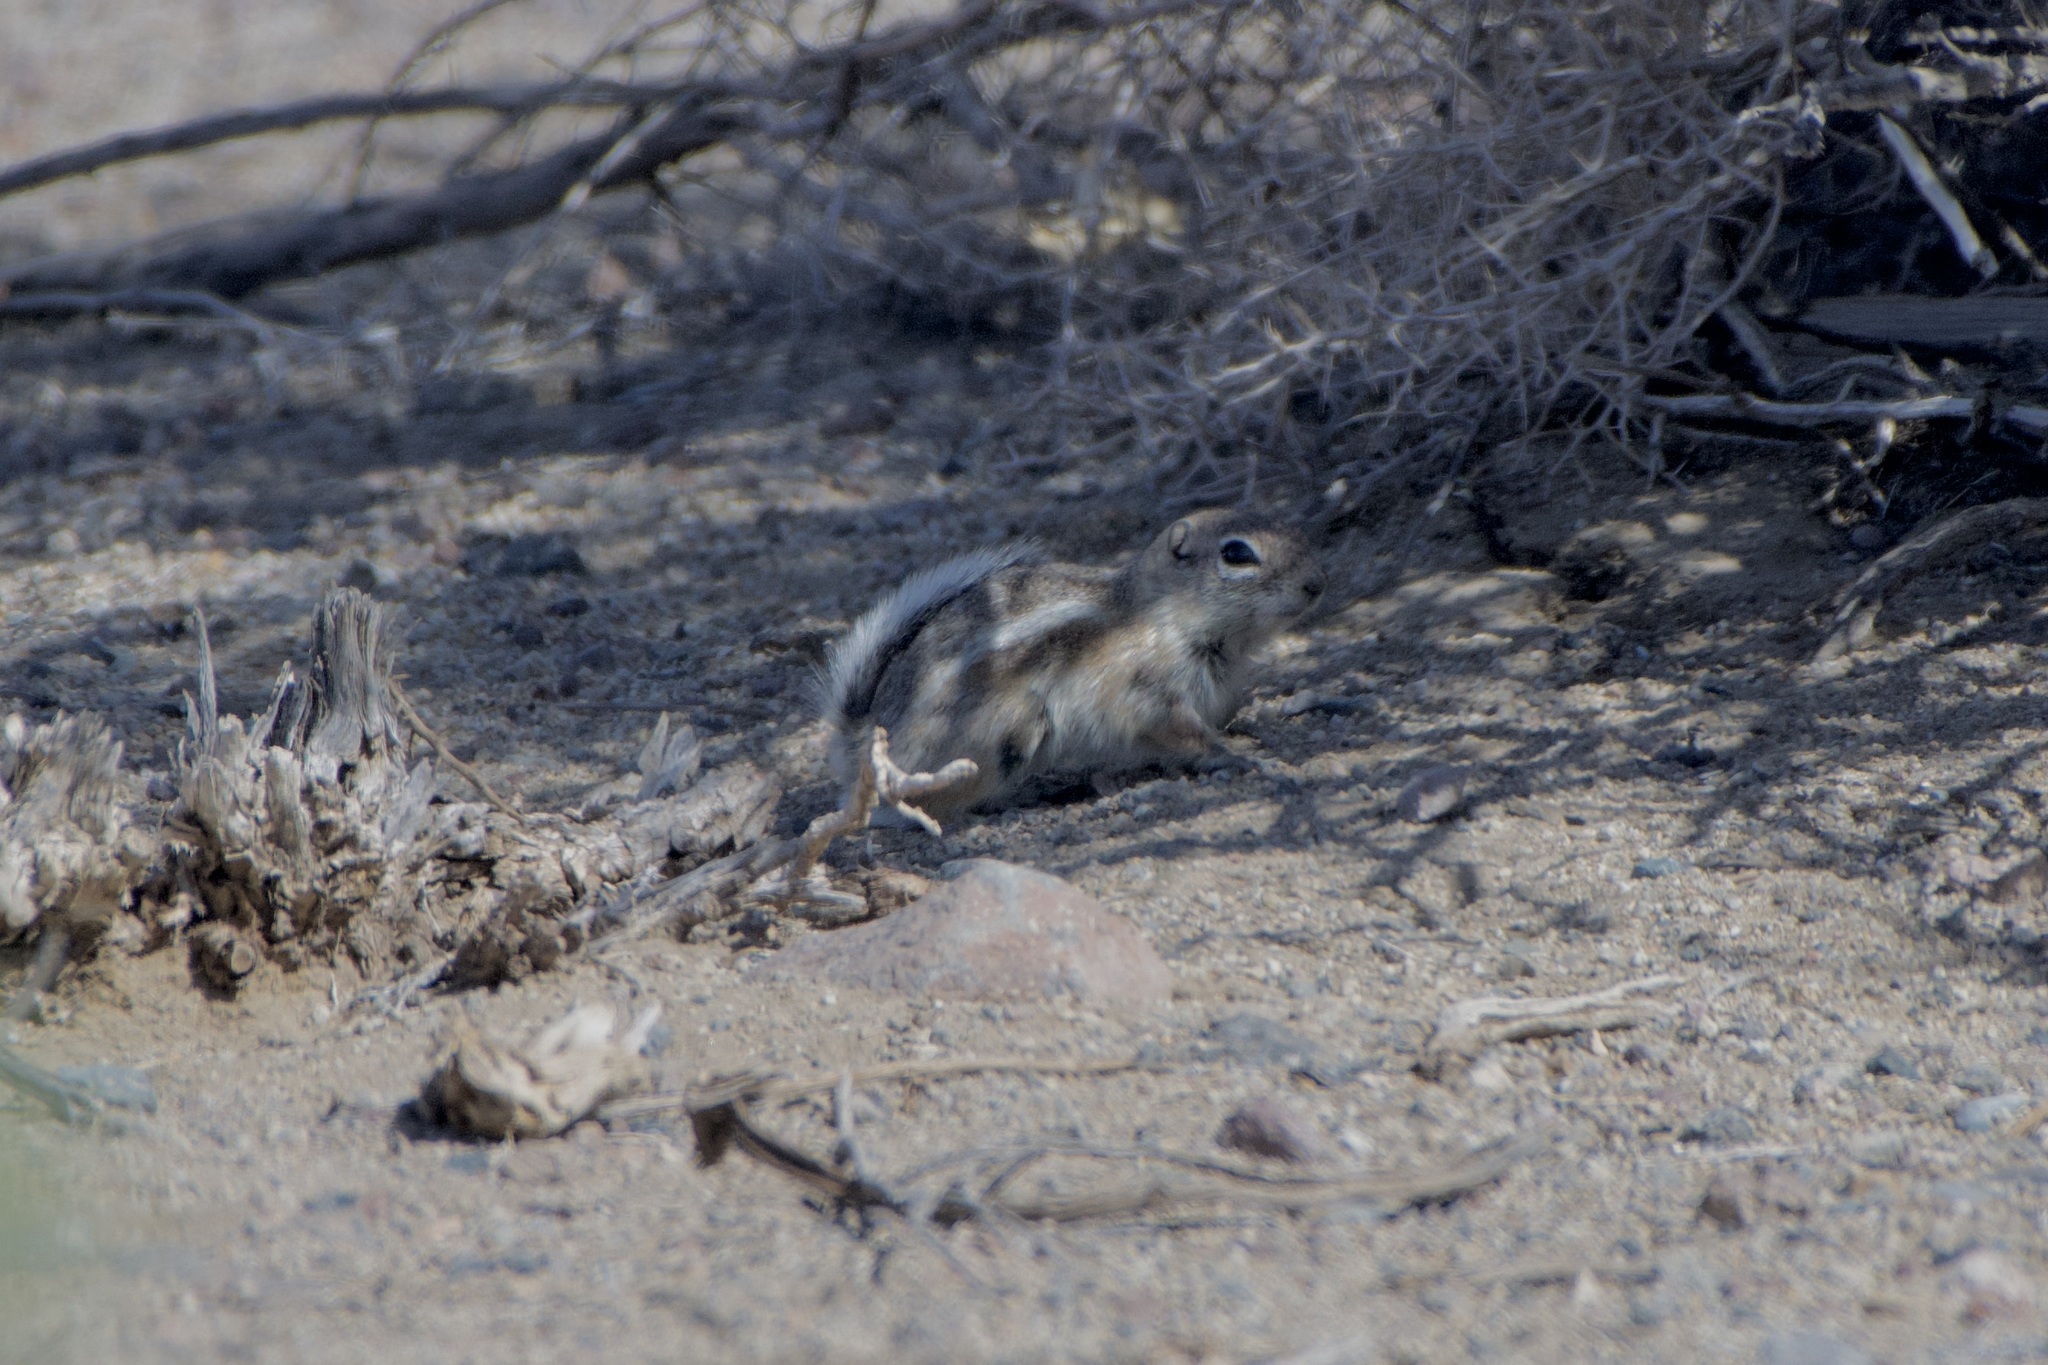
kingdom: Animalia
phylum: Chordata
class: Mammalia
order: Rodentia
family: Sciuridae
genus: Ammospermophilus
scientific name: Ammospermophilus leucurus
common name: White-tailed antelope squirrel
